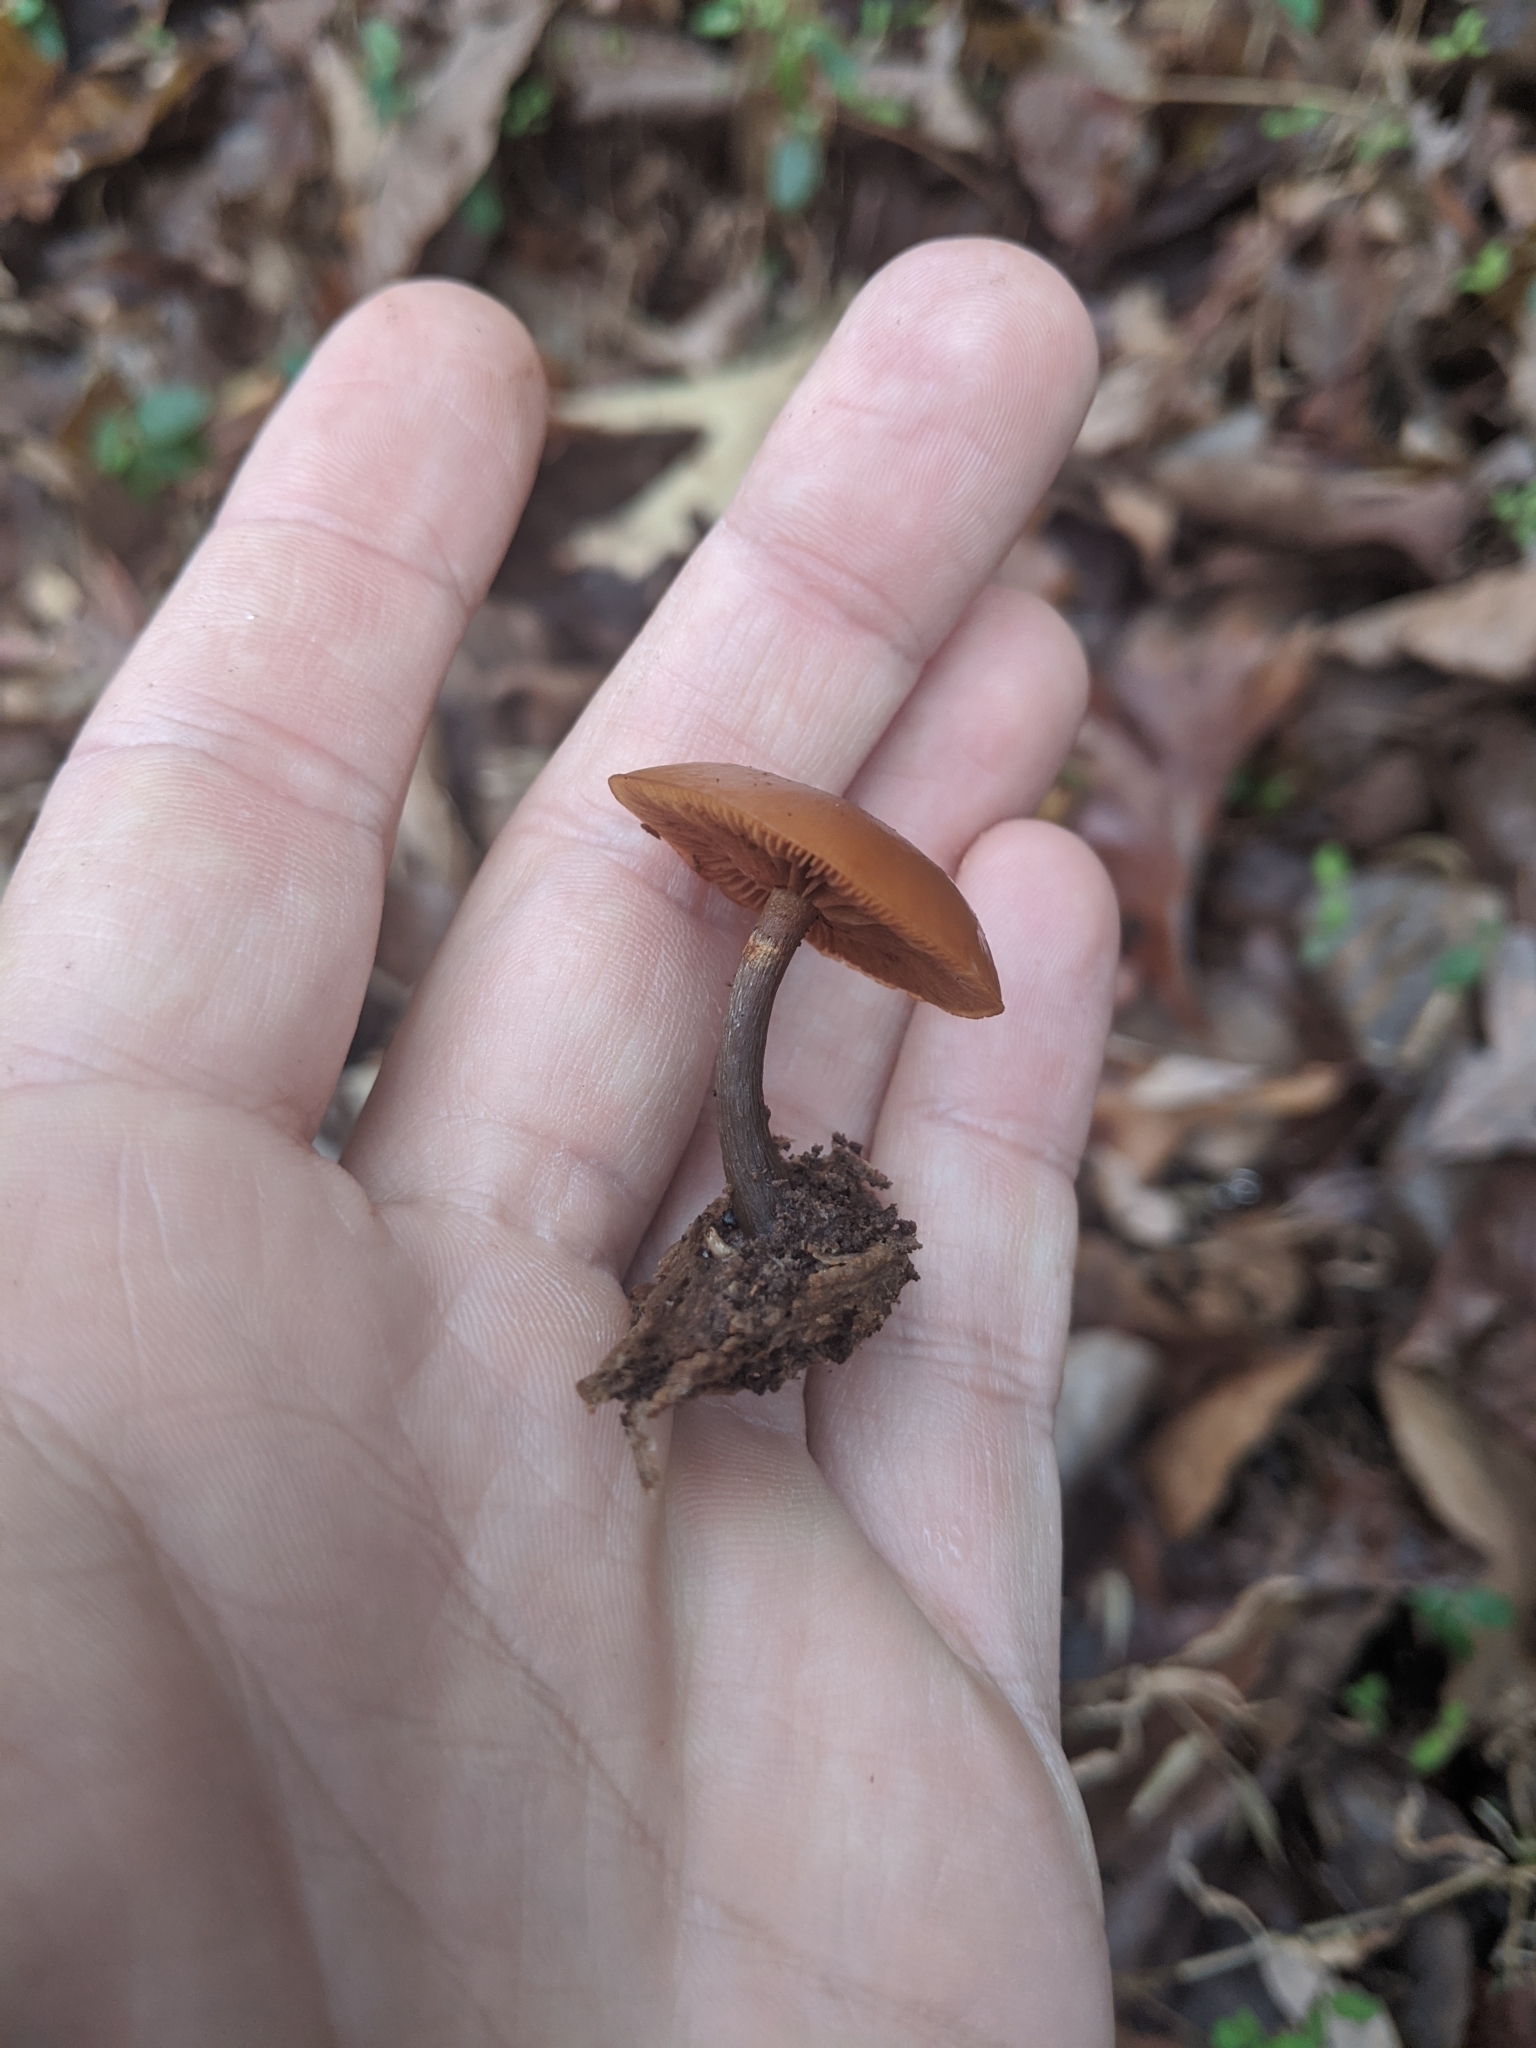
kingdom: Fungi
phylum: Basidiomycota
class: Agaricomycetes
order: Agaricales
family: Hymenogastraceae
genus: Galerina
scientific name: Galerina marginata
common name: Funeral bell
